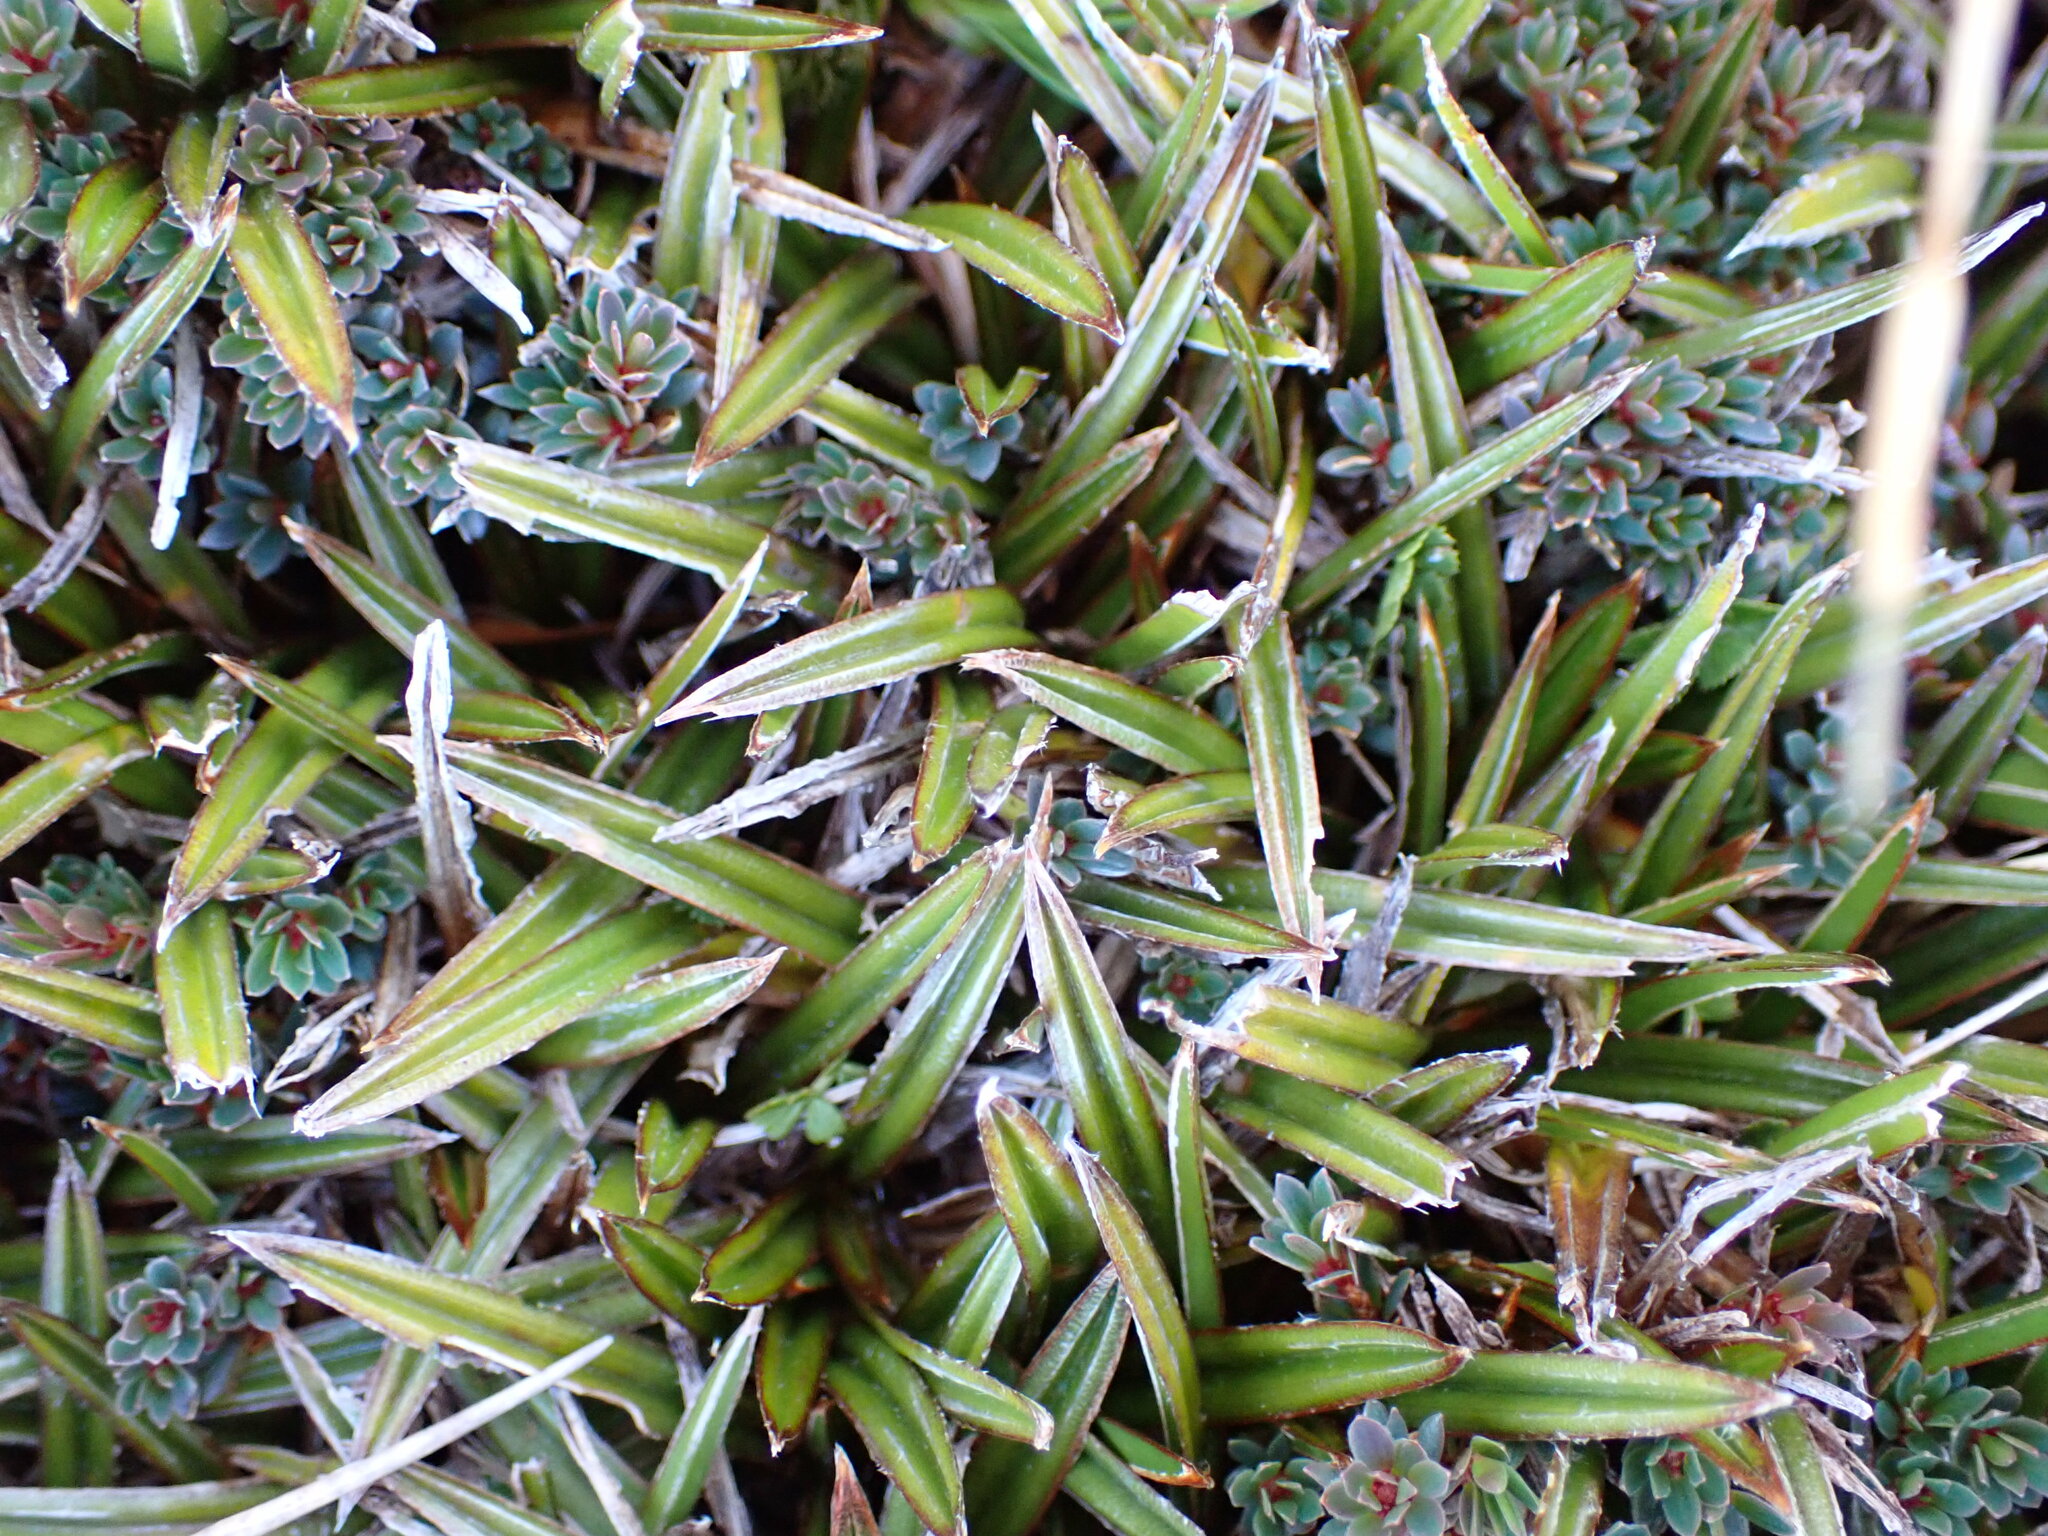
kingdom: Plantae
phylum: Tracheophyta
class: Liliopsida
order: Asparagales
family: Asteliaceae
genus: Astelia
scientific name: Astelia linearis
